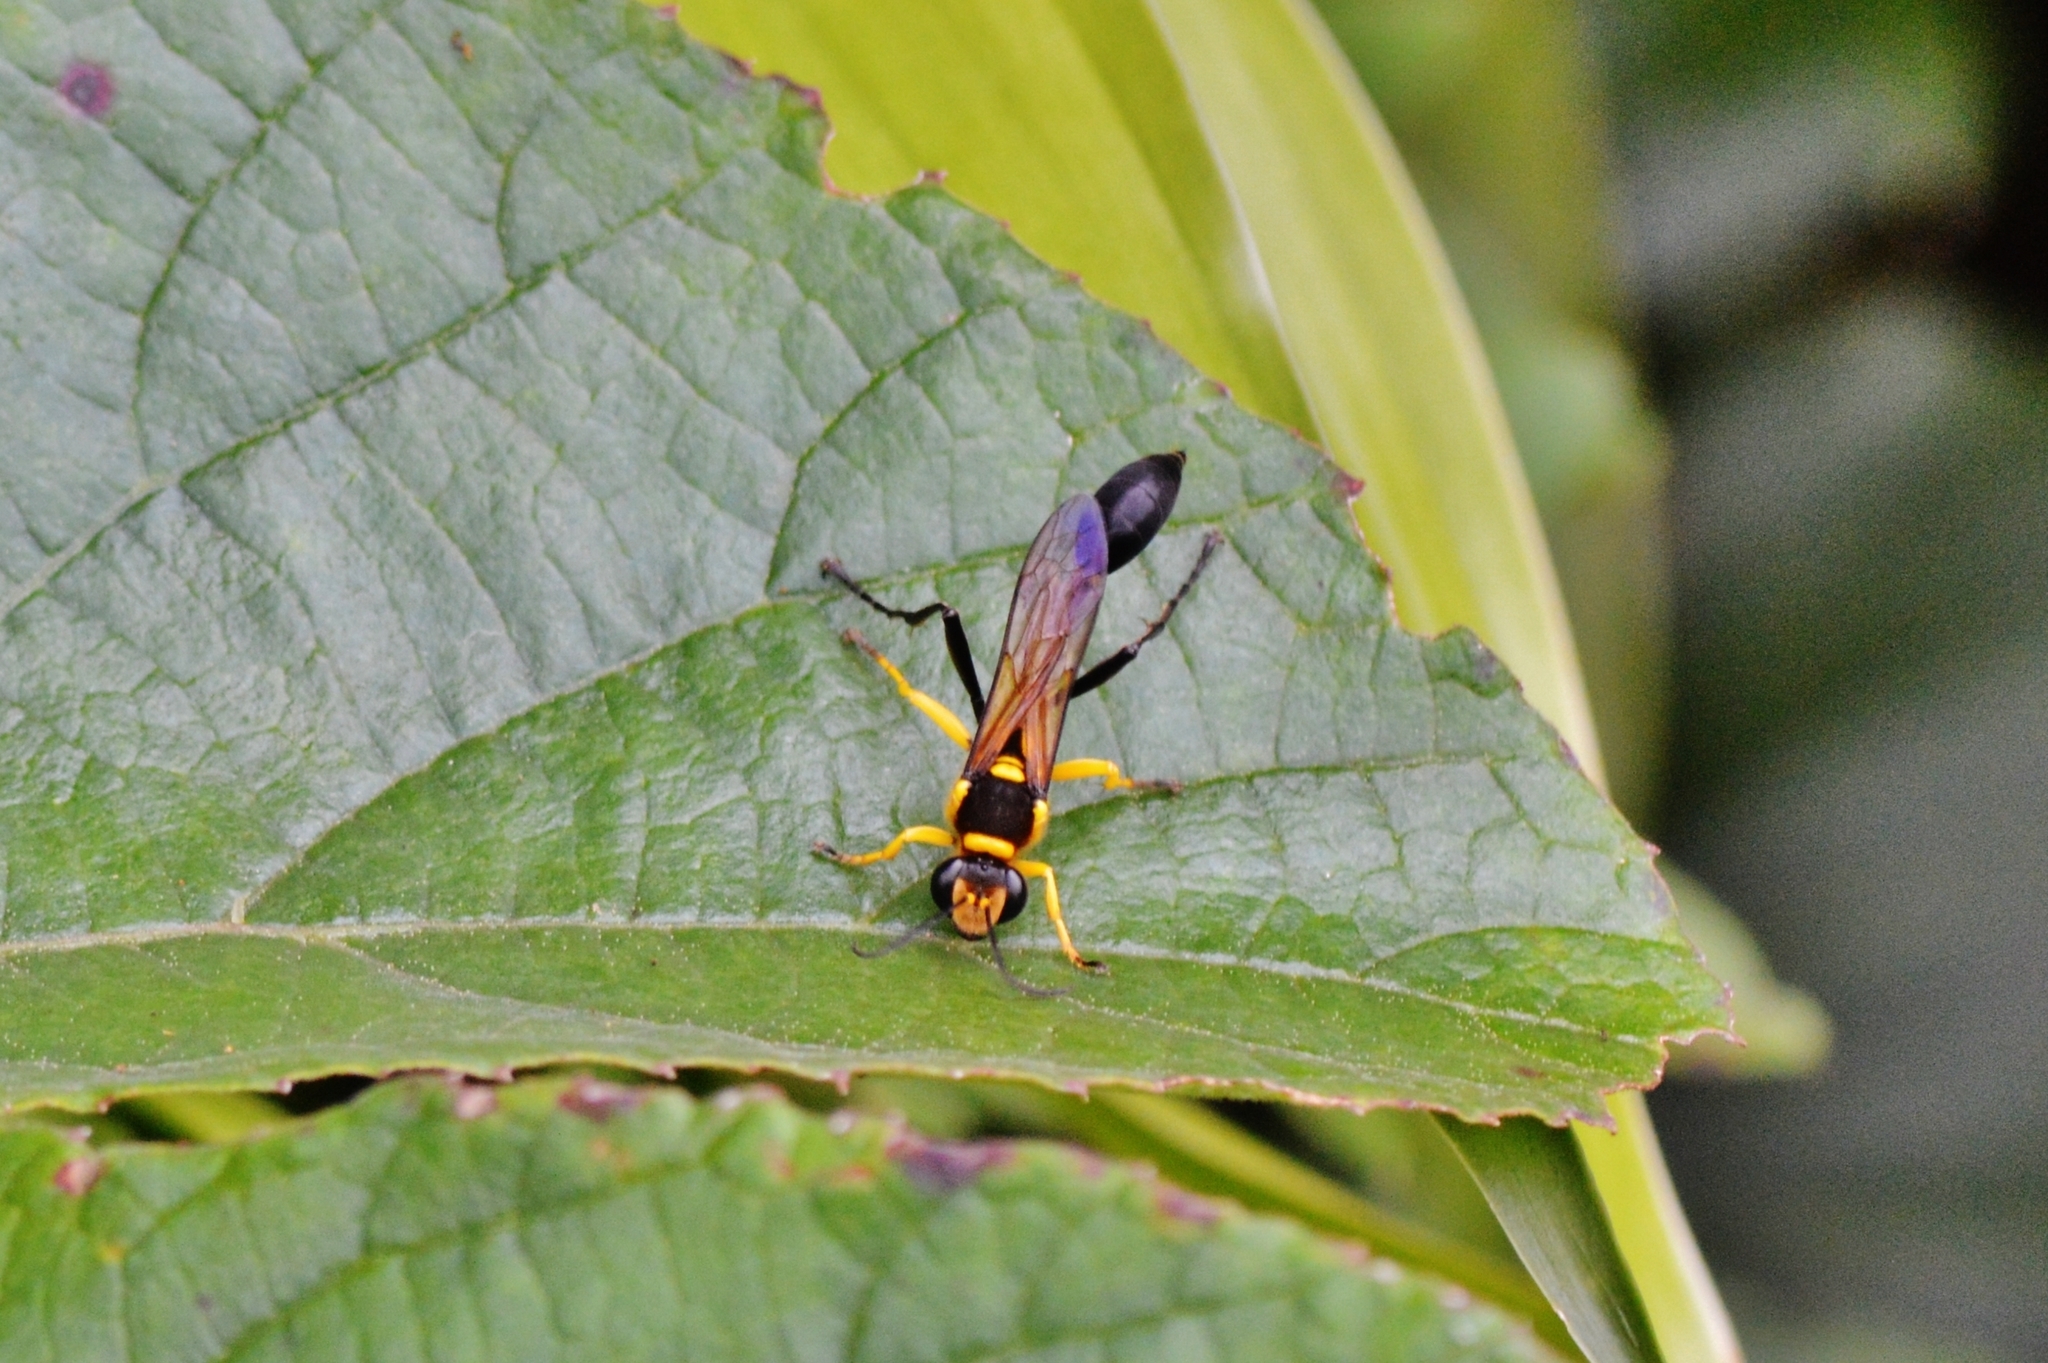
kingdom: Animalia
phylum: Arthropoda
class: Insecta
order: Hymenoptera
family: Sphecidae
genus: Sceliphron
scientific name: Sceliphron fistularium
